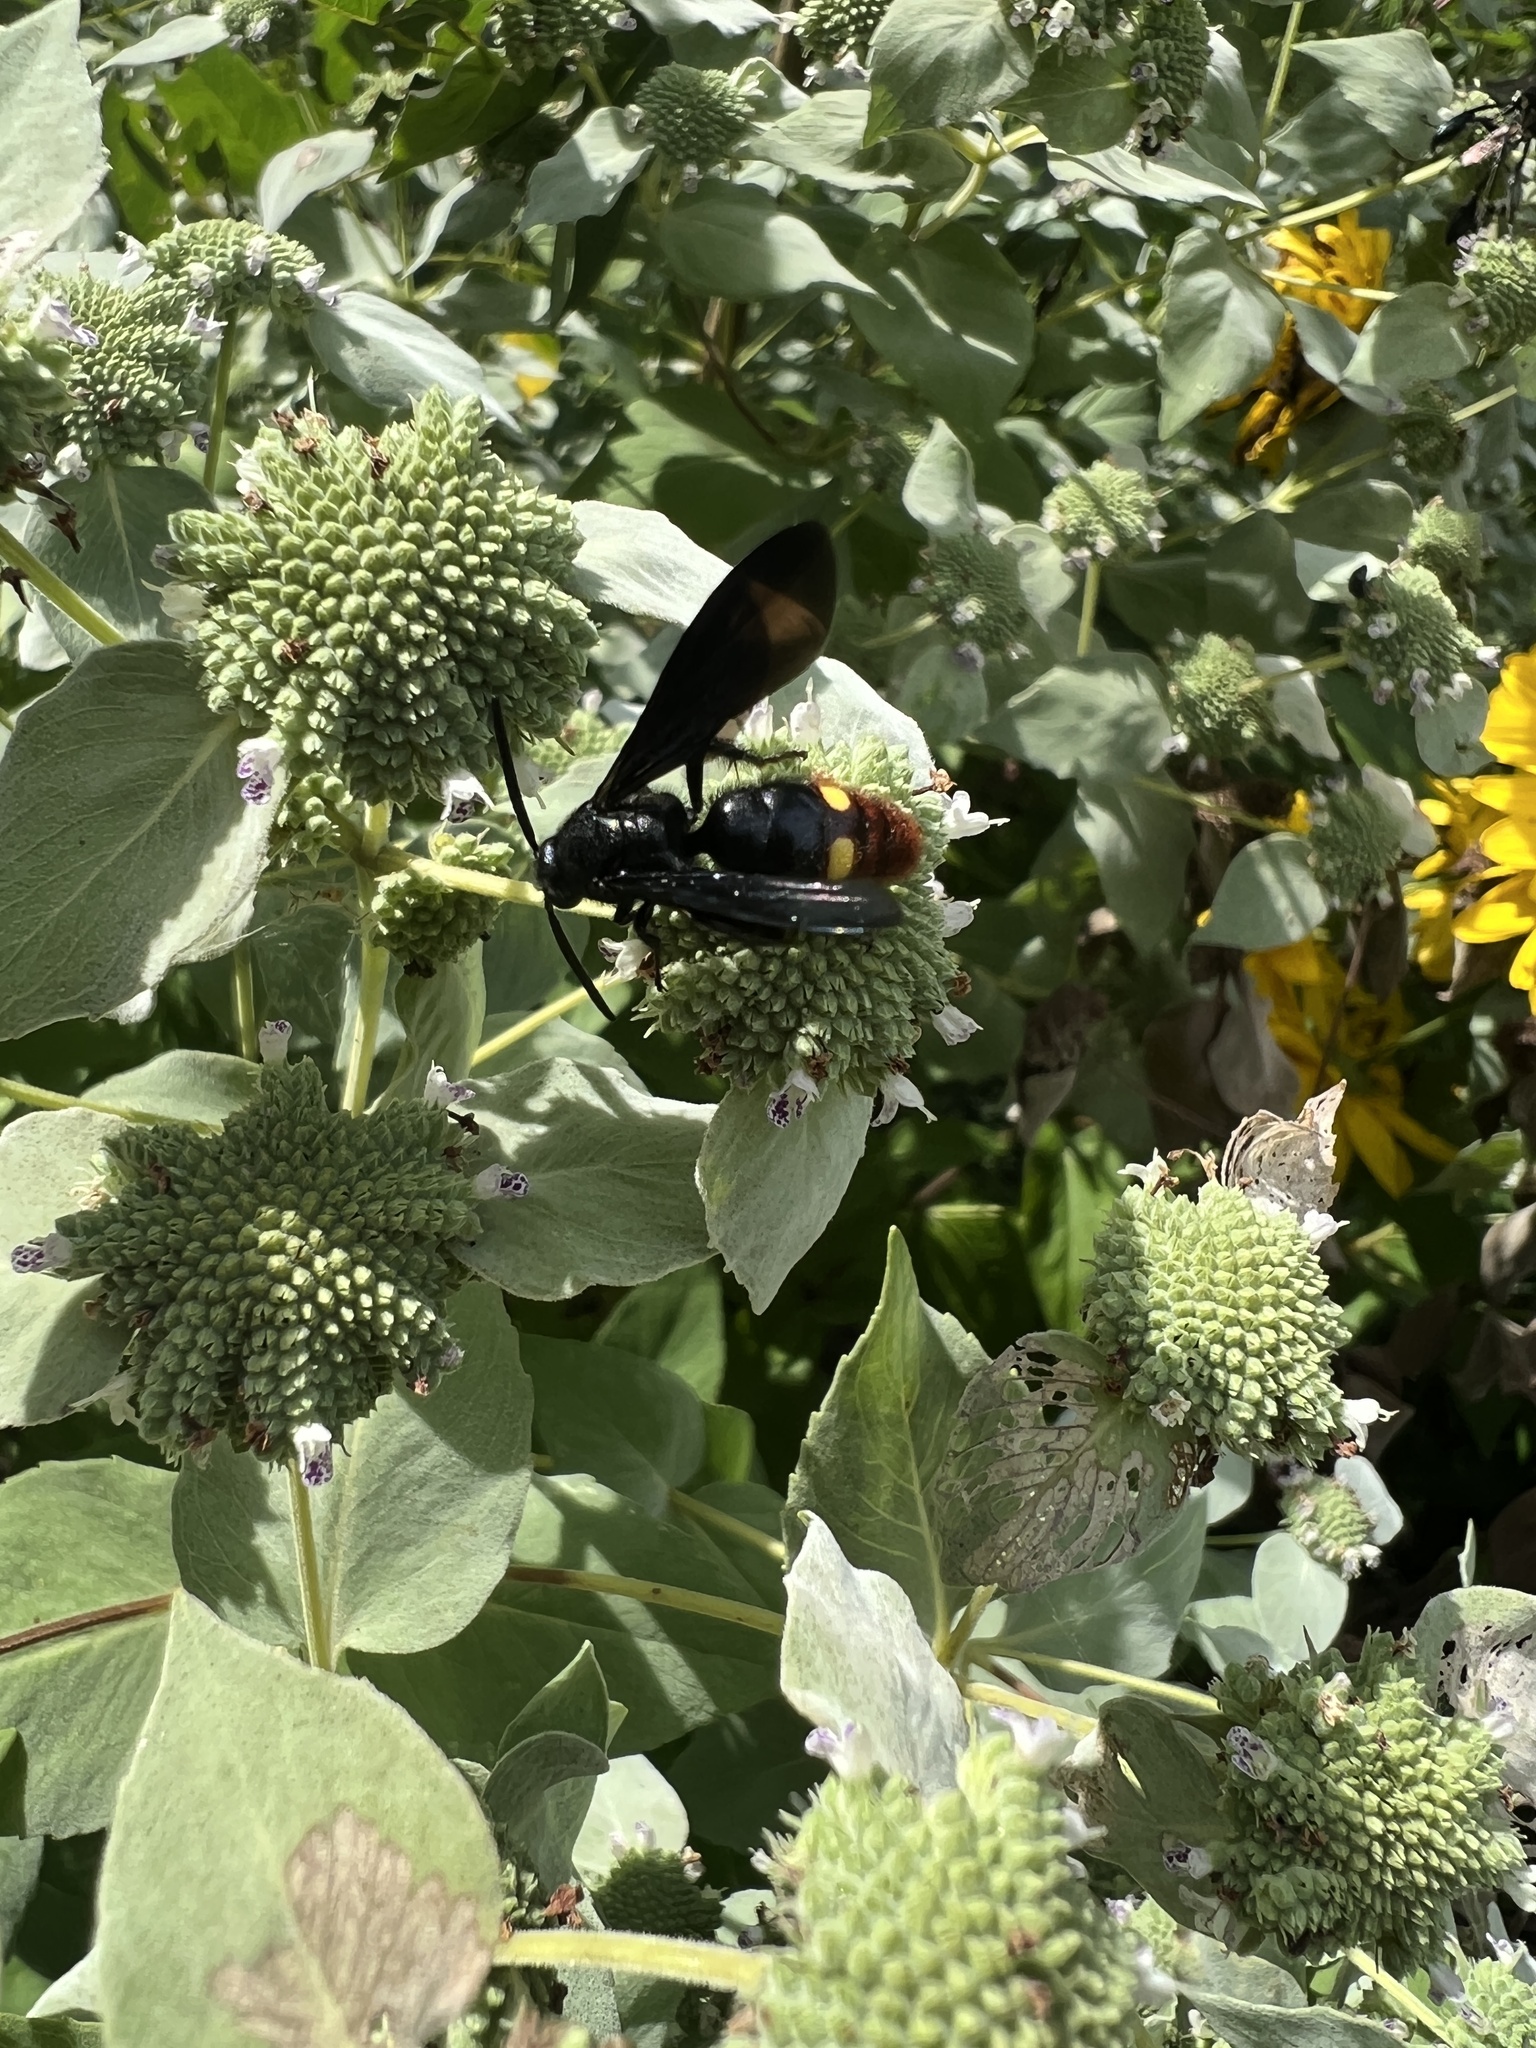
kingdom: Animalia
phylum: Arthropoda
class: Insecta
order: Hymenoptera
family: Scoliidae
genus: Scolia
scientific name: Scolia dubia
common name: Blue-winged scoliid wasp
